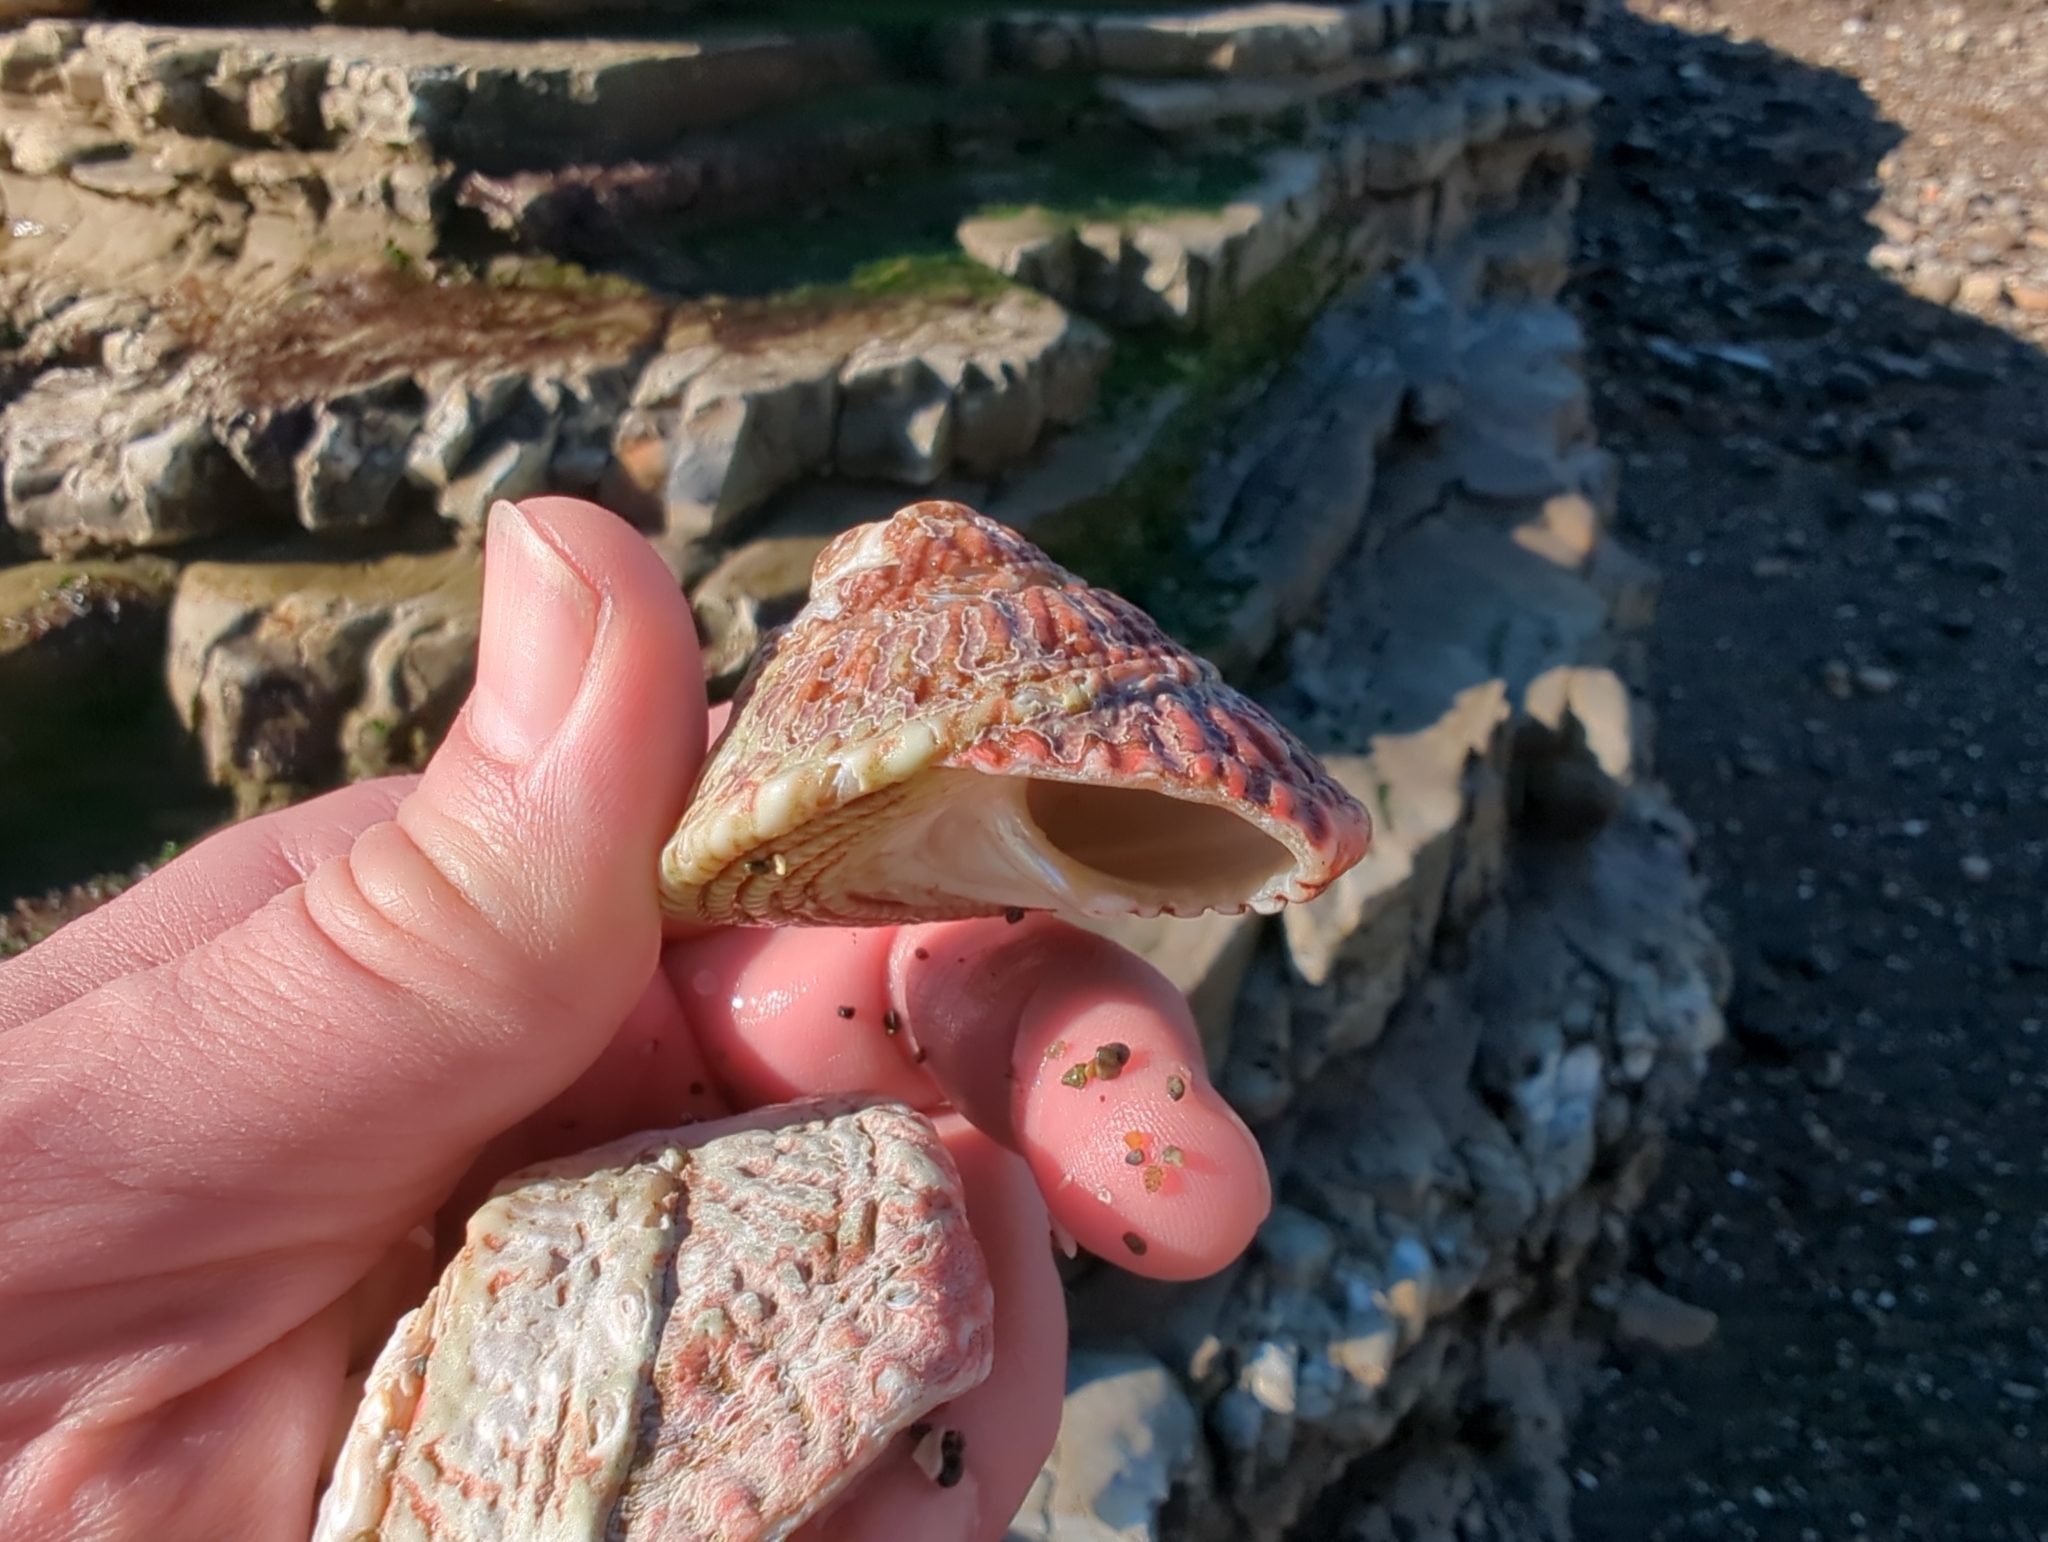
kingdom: Animalia
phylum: Mollusca
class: Gastropoda
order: Trochida
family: Turbinidae
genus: Pomaulax
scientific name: Pomaulax gibberosus
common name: Red turban
